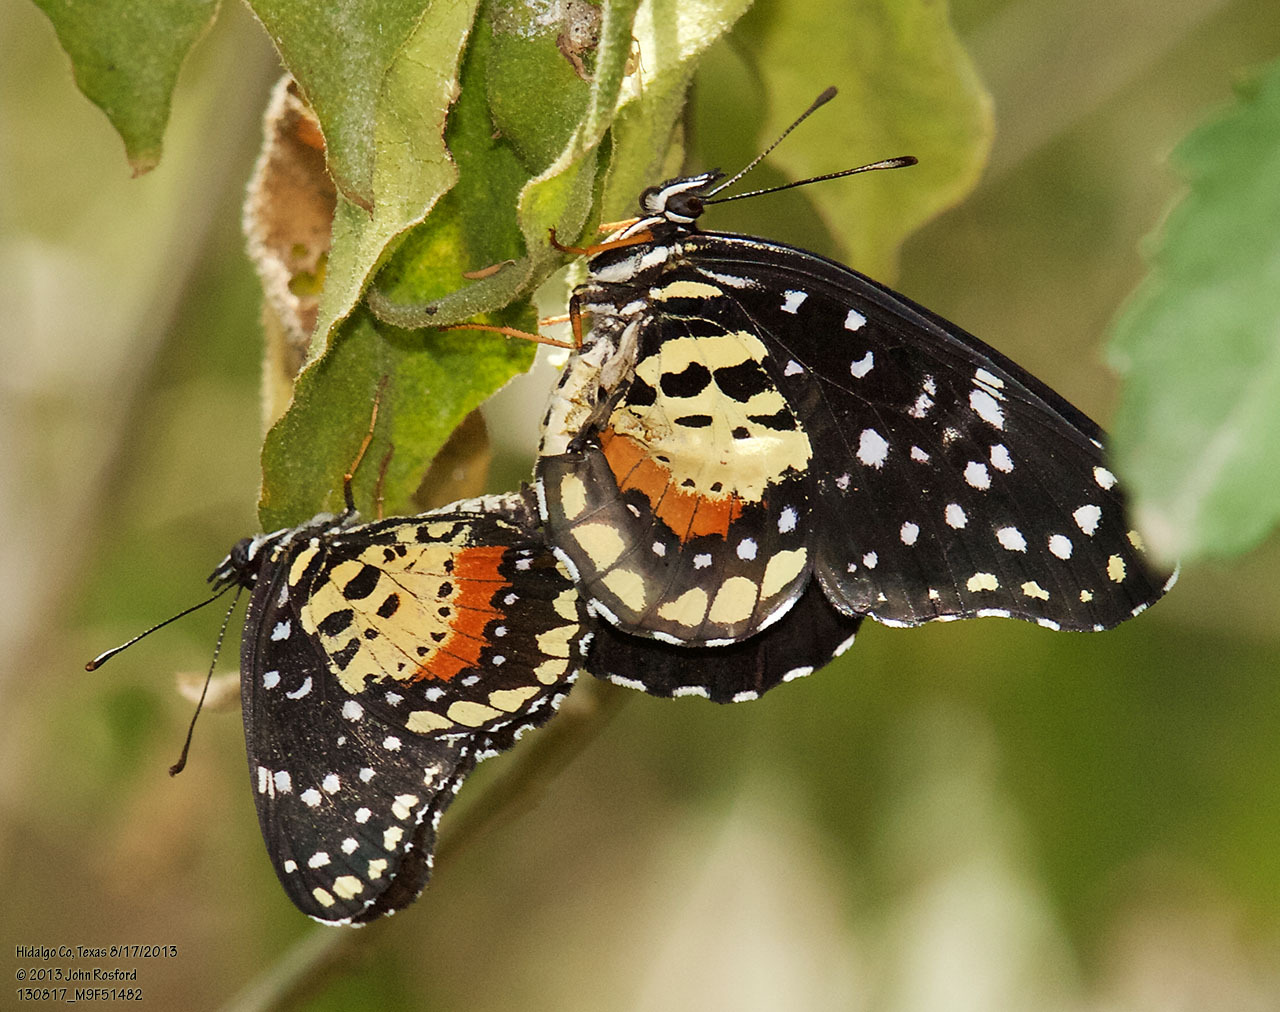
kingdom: Animalia
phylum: Arthropoda
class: Insecta
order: Lepidoptera
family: Nymphalidae
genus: Chlosyne
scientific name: Chlosyne janais
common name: Crimson patch
